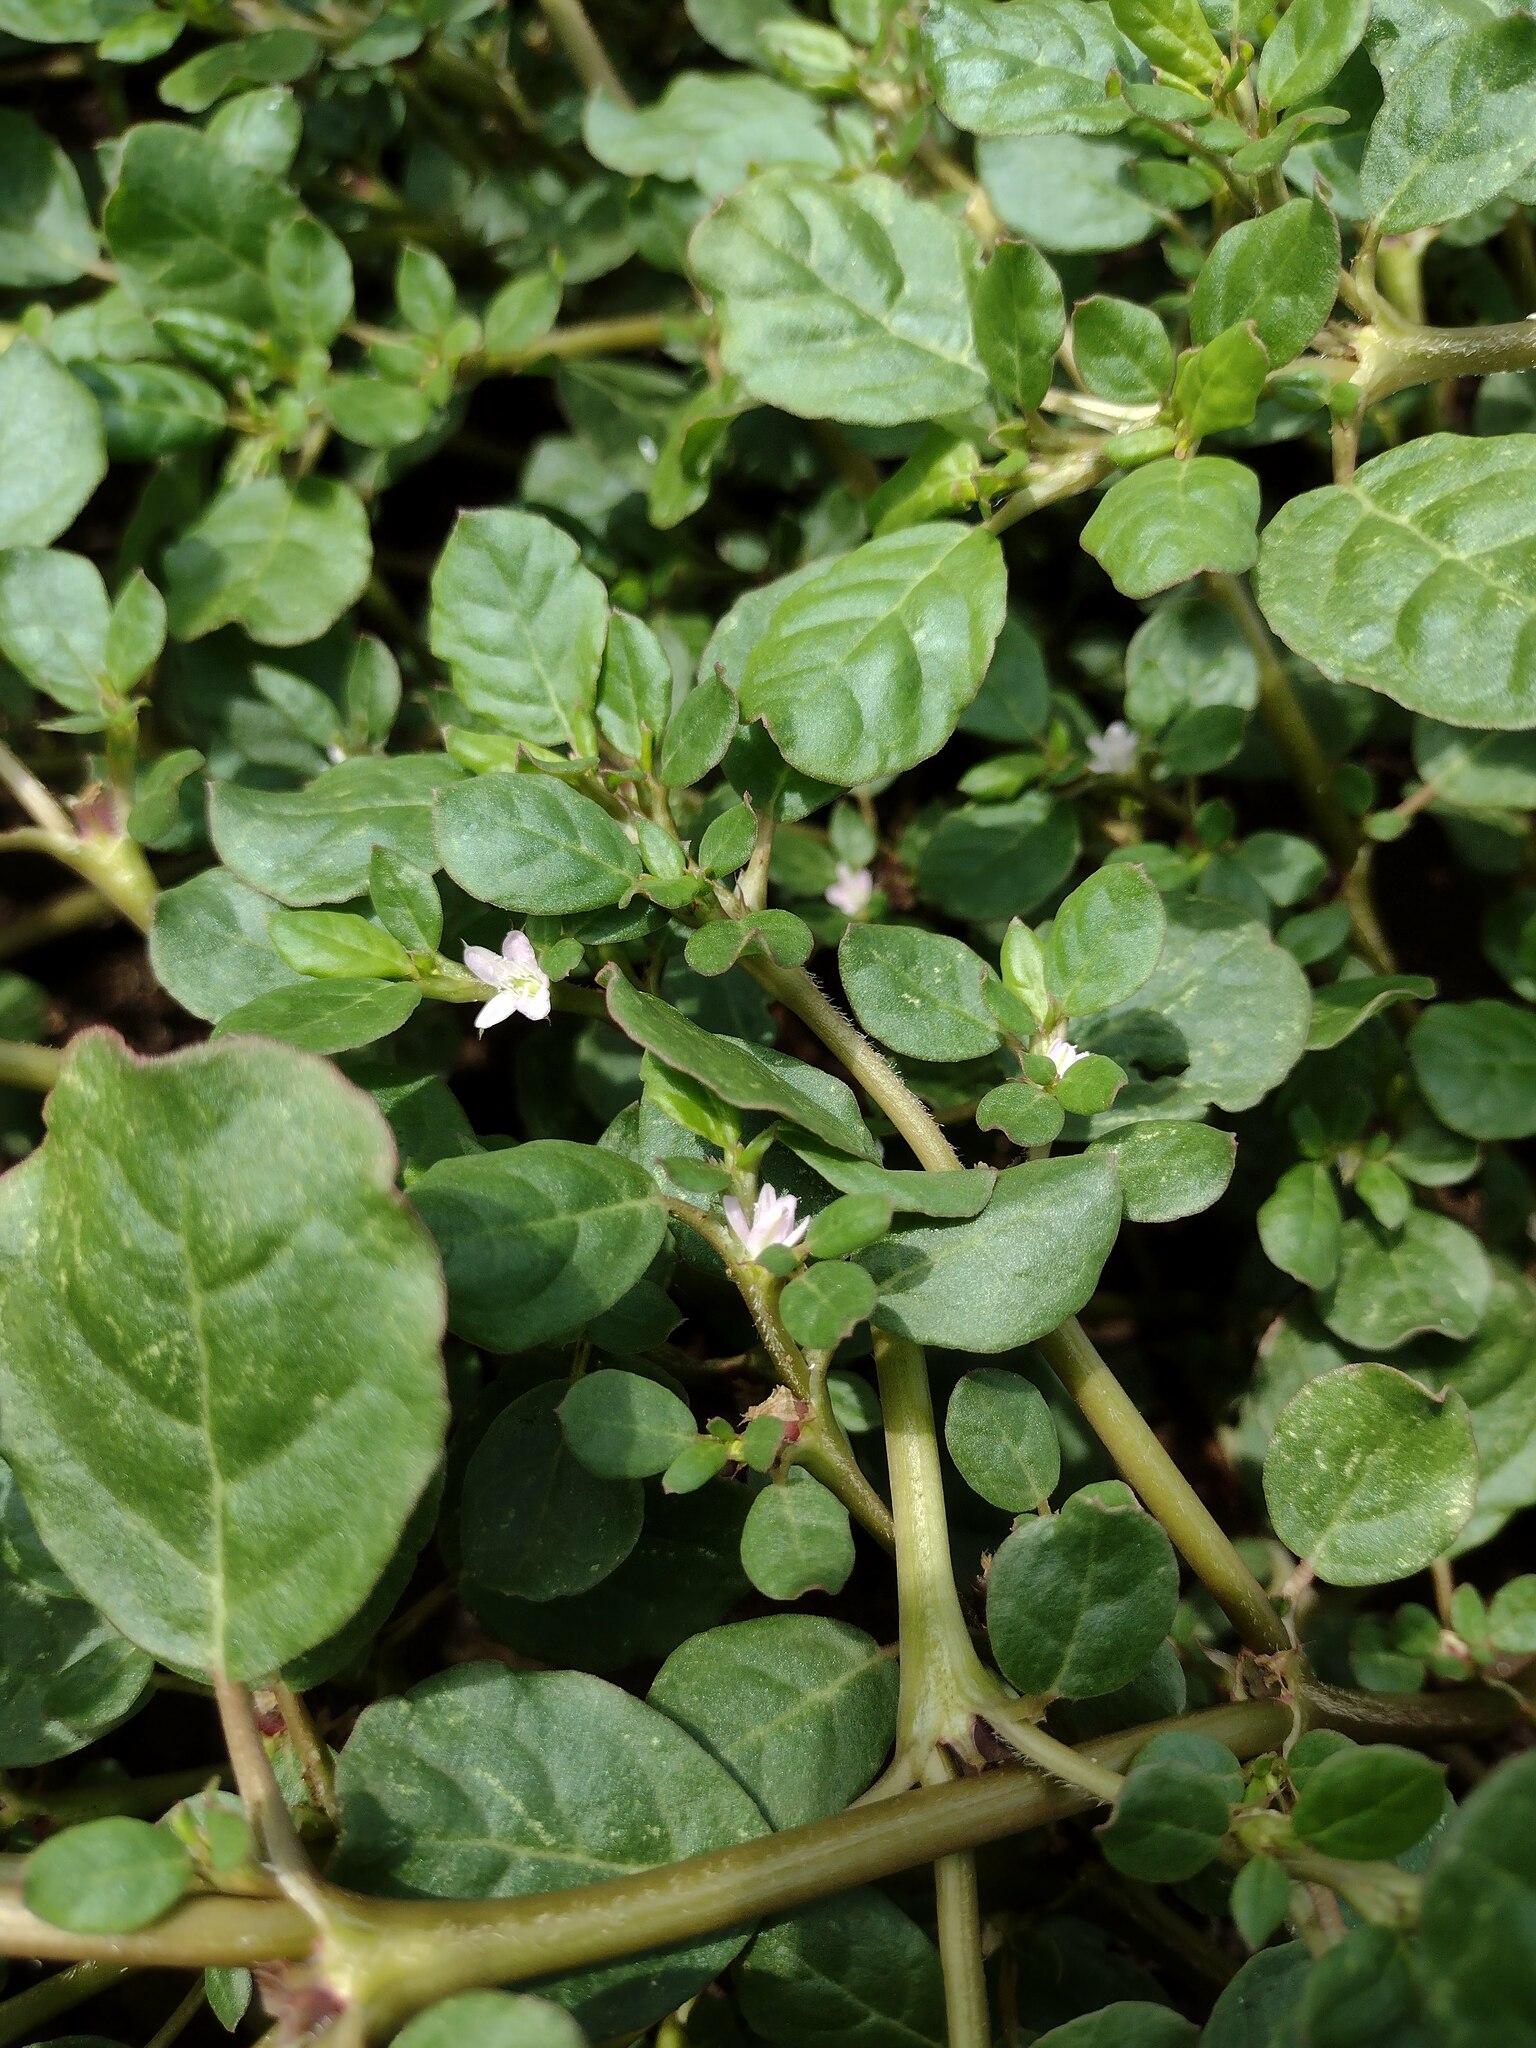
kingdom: Plantae
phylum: Tracheophyta
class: Magnoliopsida
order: Caryophyllales
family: Aizoaceae
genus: Trianthema
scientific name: Trianthema portulacastrum
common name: Desert horsepurslane
